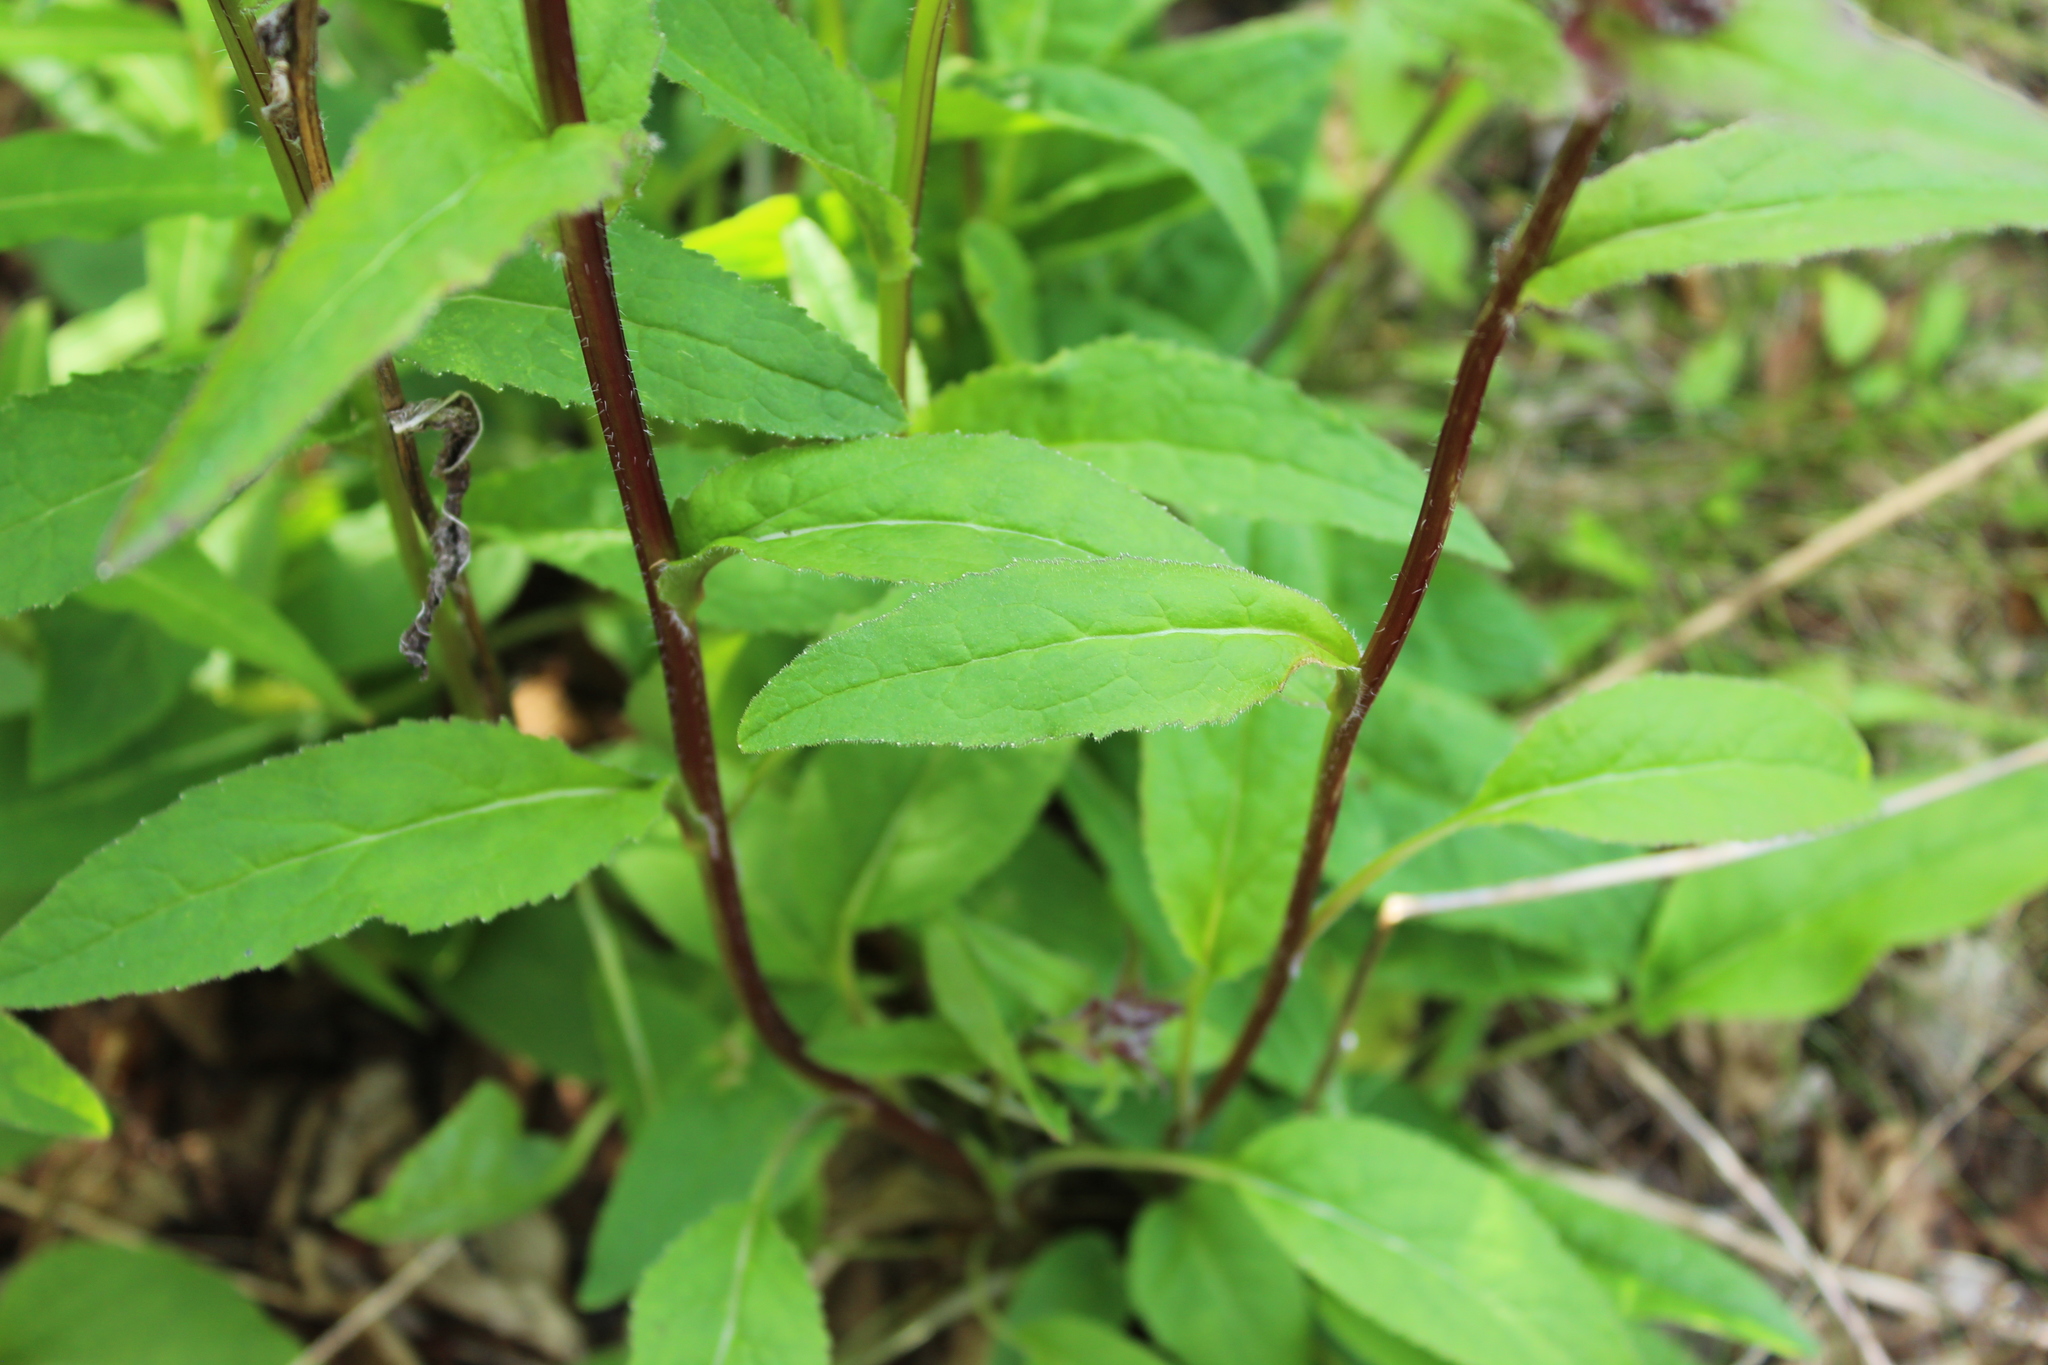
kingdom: Plantae
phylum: Tracheophyta
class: Magnoliopsida
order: Asterales
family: Campanulaceae
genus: Campanula
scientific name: Campanula glomerata
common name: Clustered bellflower
